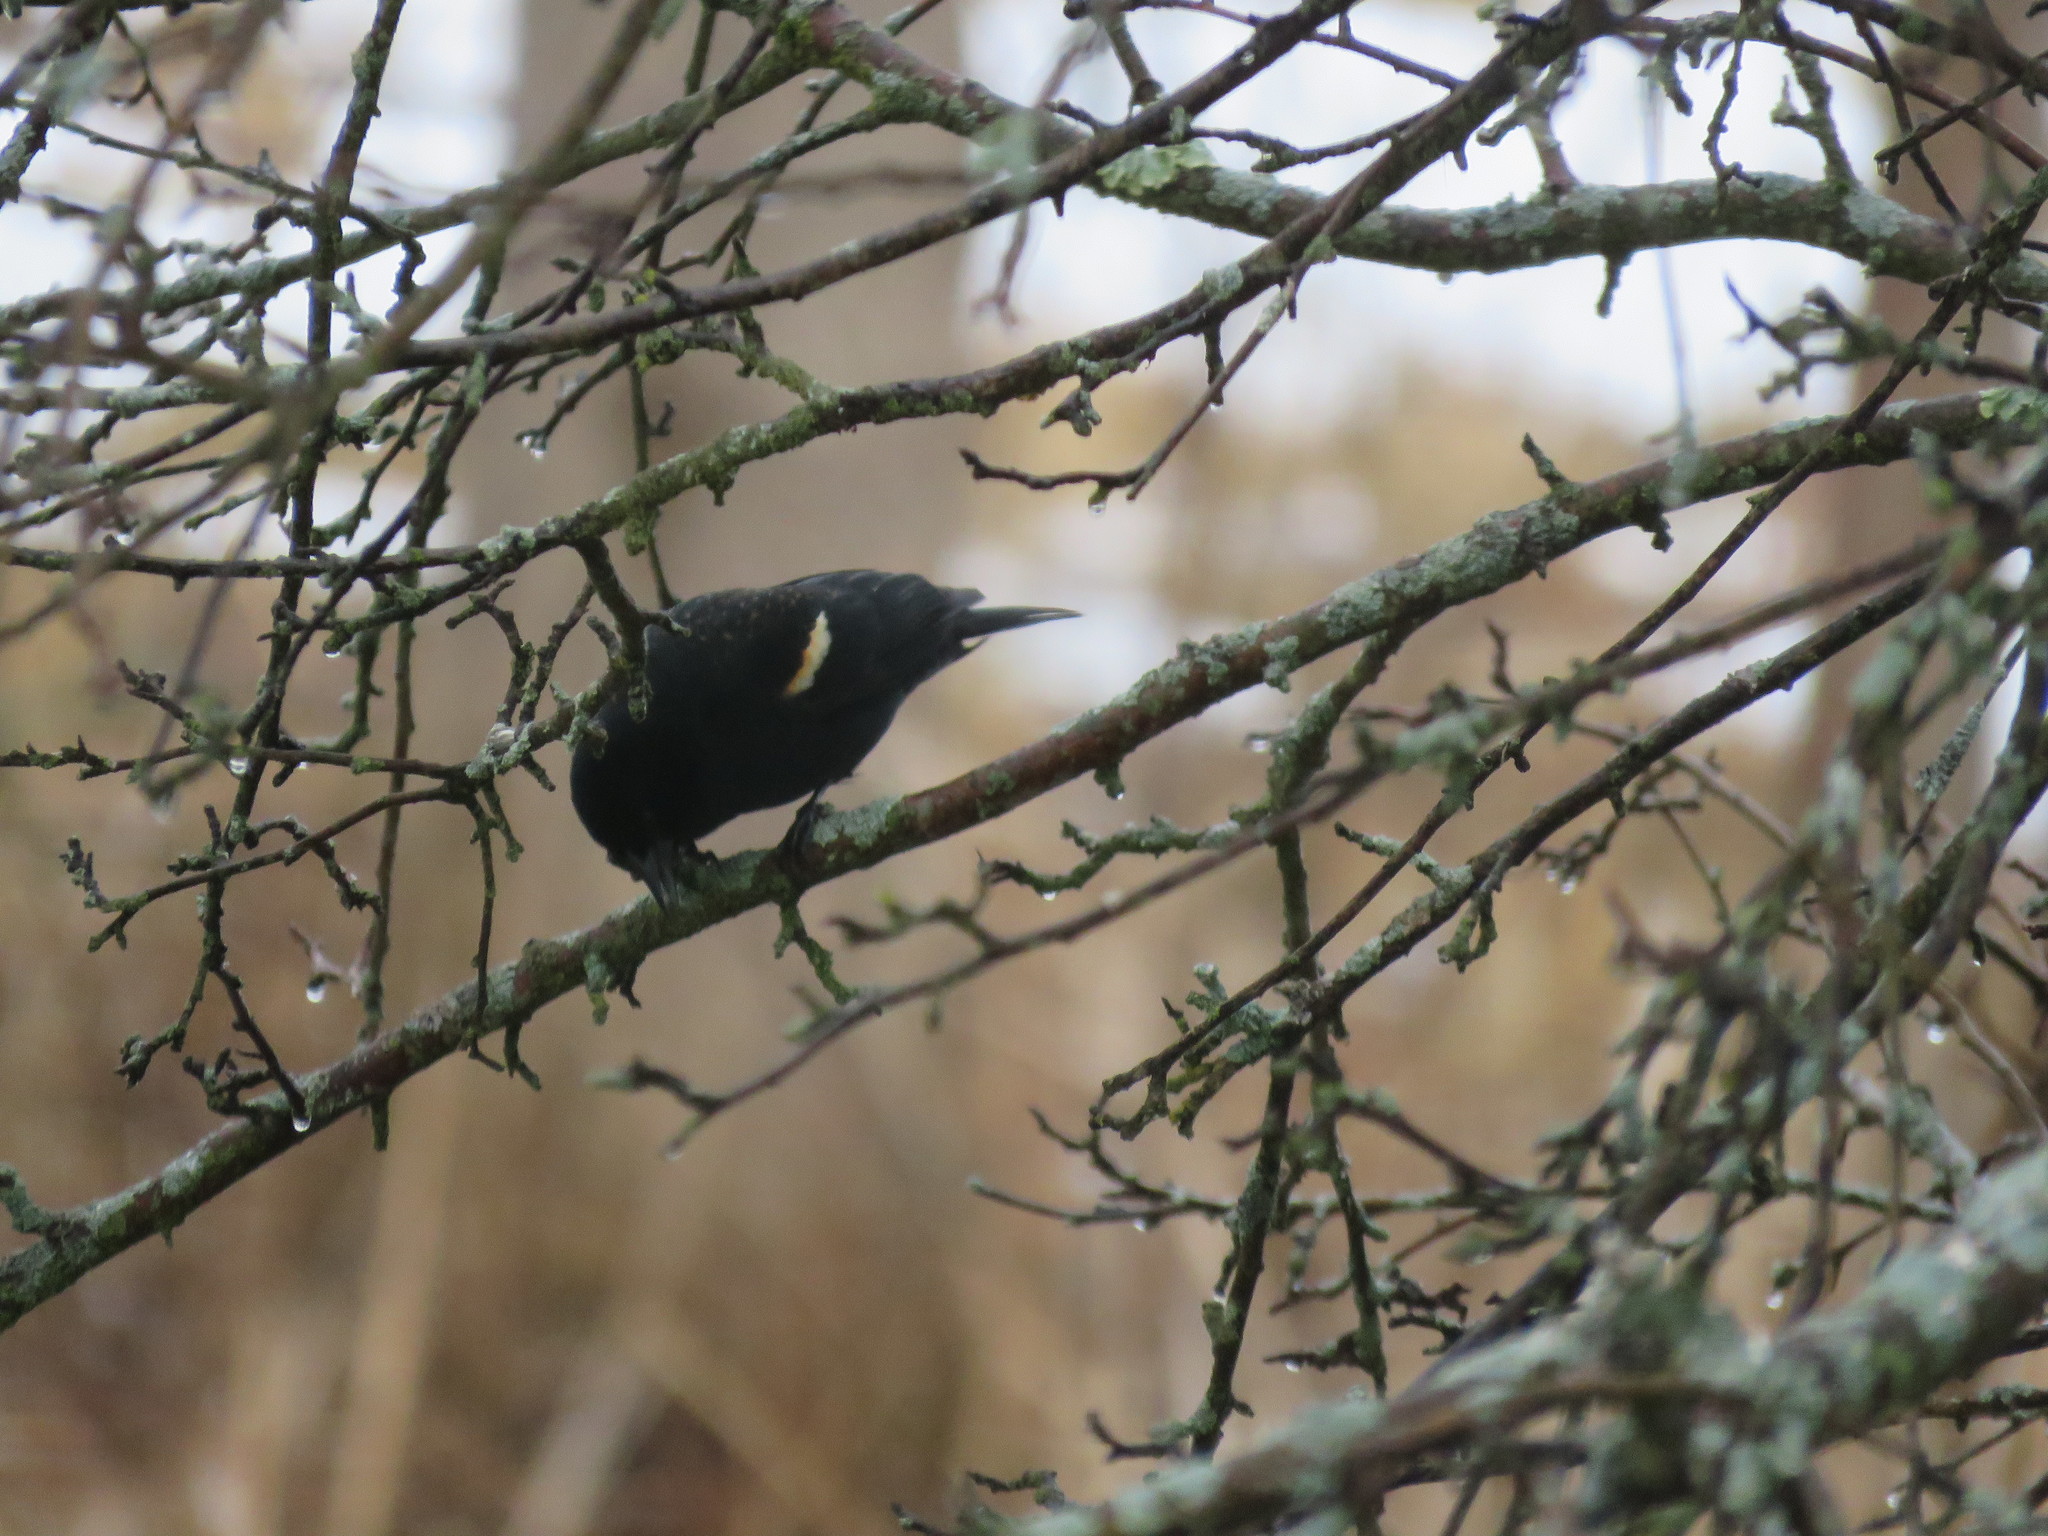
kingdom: Animalia
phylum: Chordata
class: Aves
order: Passeriformes
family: Icteridae
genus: Agelaius
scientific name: Agelaius phoeniceus
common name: Red-winged blackbird
